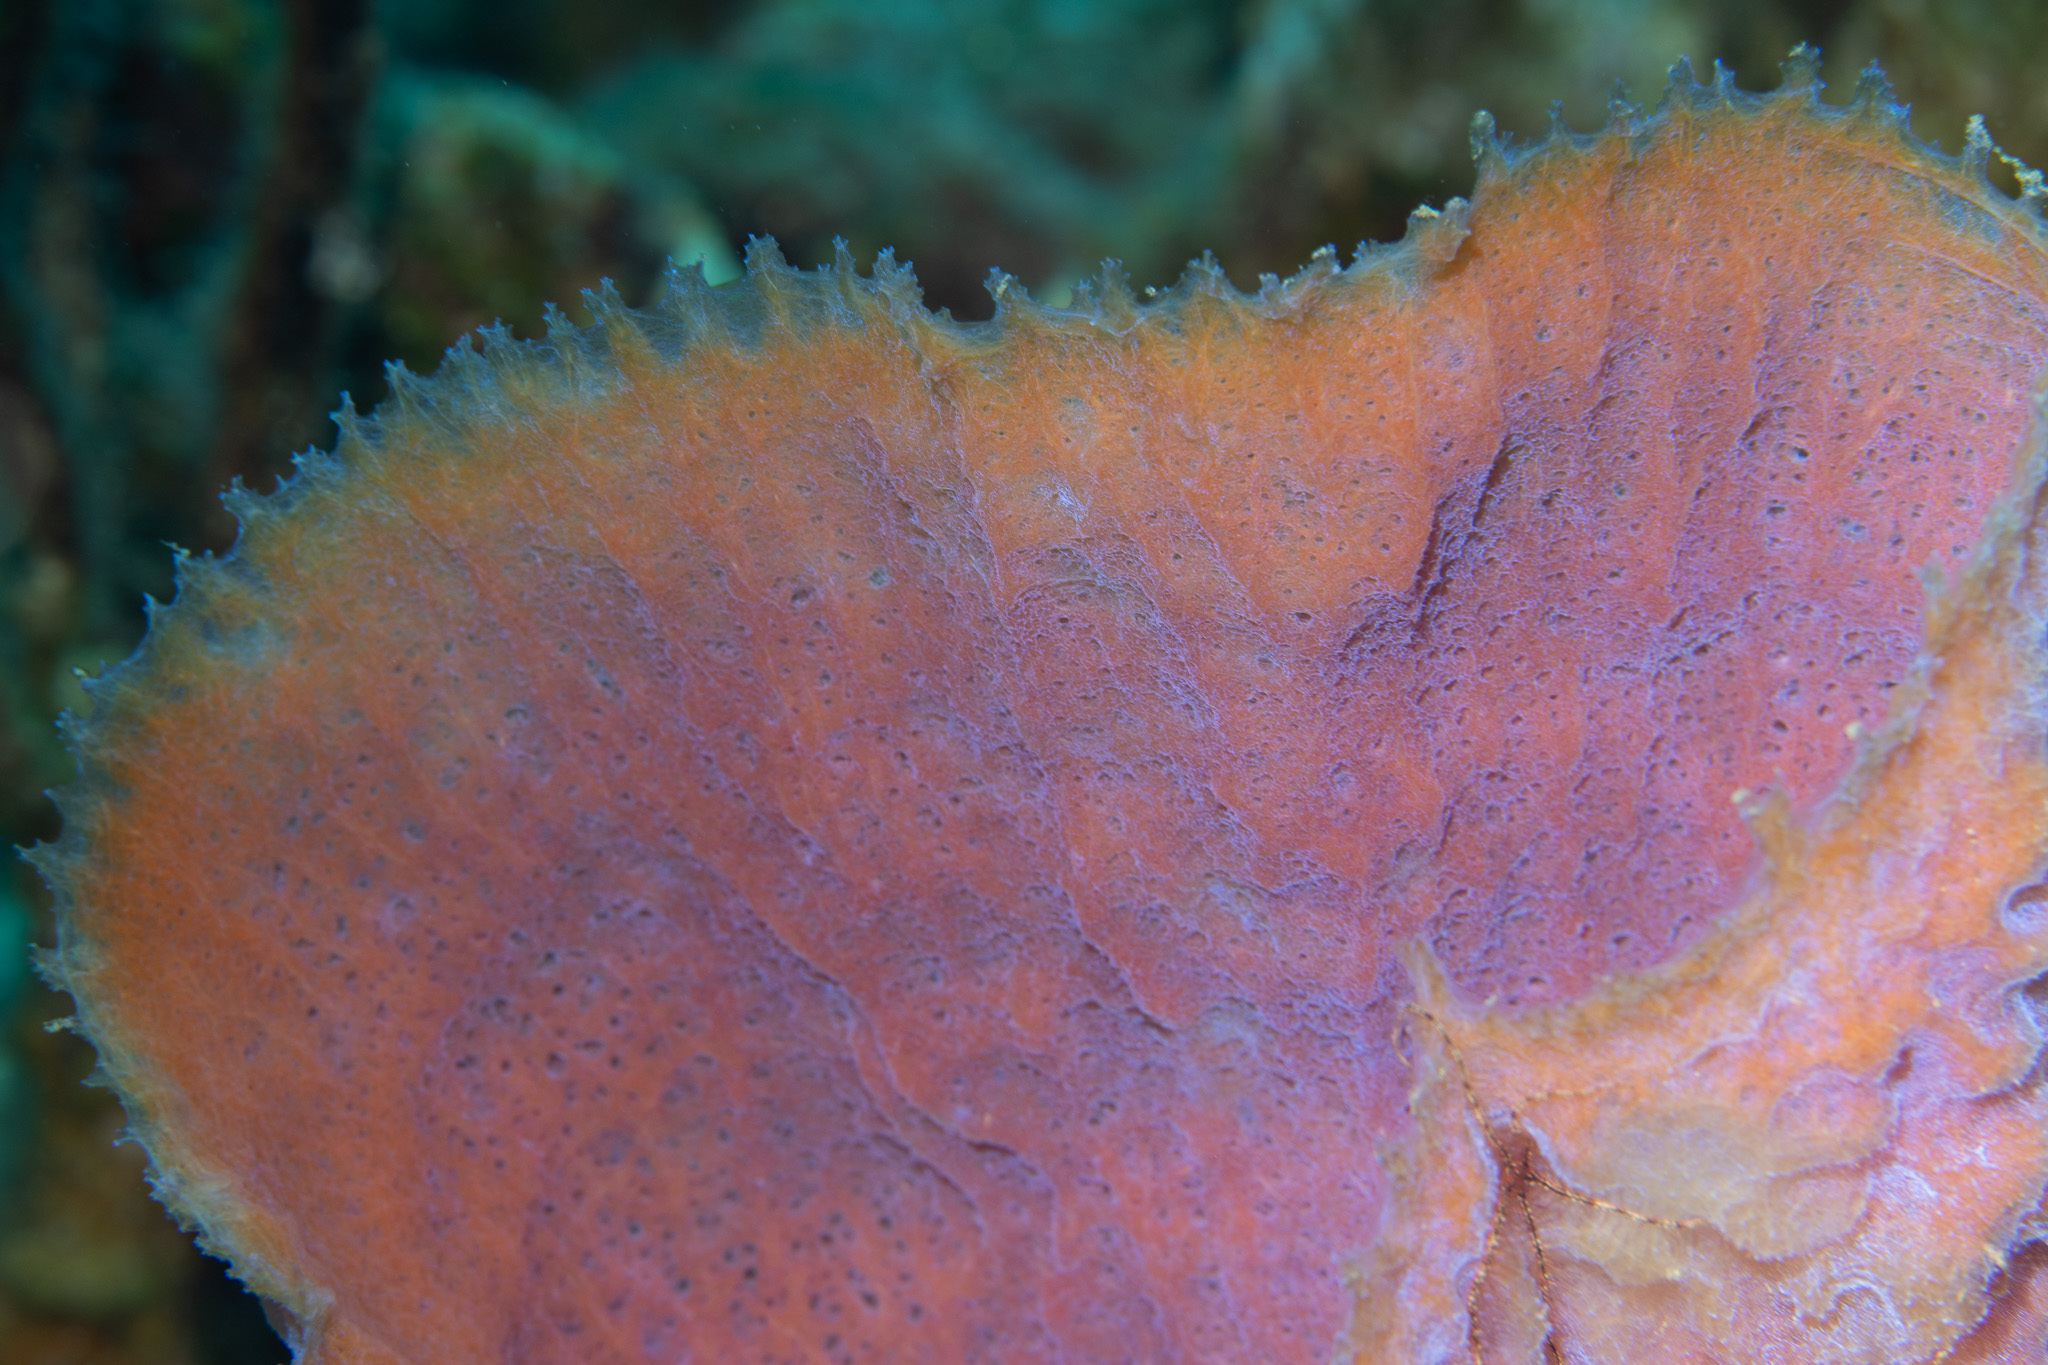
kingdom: Animalia
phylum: Porifera
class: Demospongiae
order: Haplosclerida
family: Callyspongiidae
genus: Callyspongia
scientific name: Callyspongia plicifera
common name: Azure vase sponge
